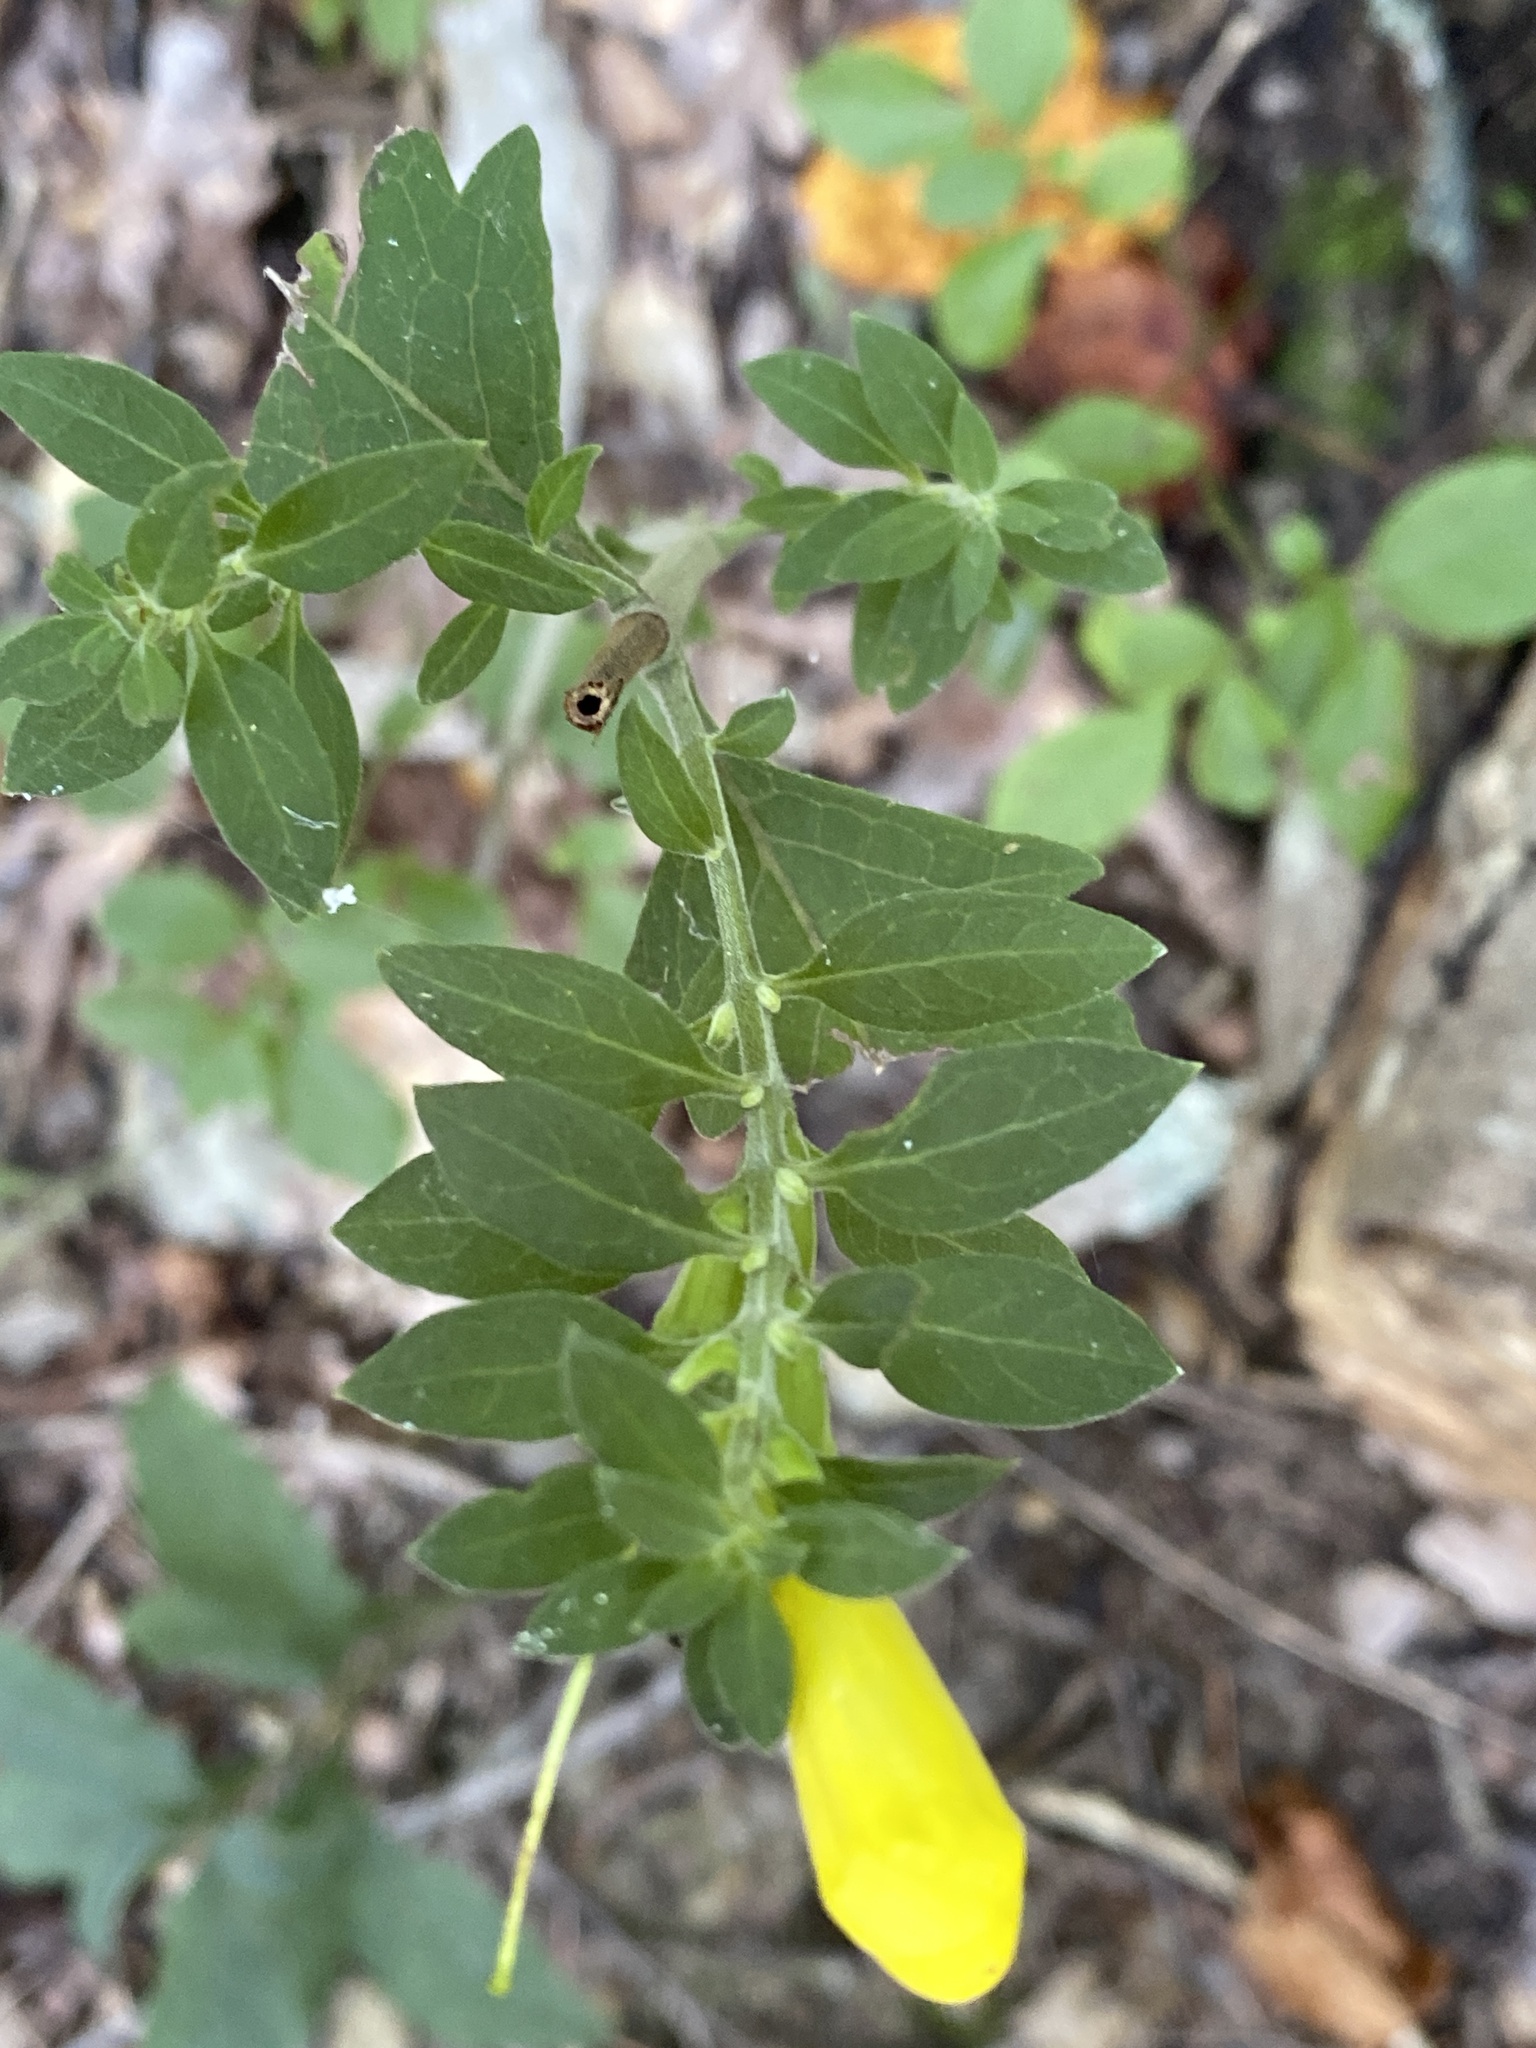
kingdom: Plantae
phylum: Tracheophyta
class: Magnoliopsida
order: Lamiales
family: Orobanchaceae
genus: Aureolaria
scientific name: Aureolaria virginica
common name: Downy false foxglove
